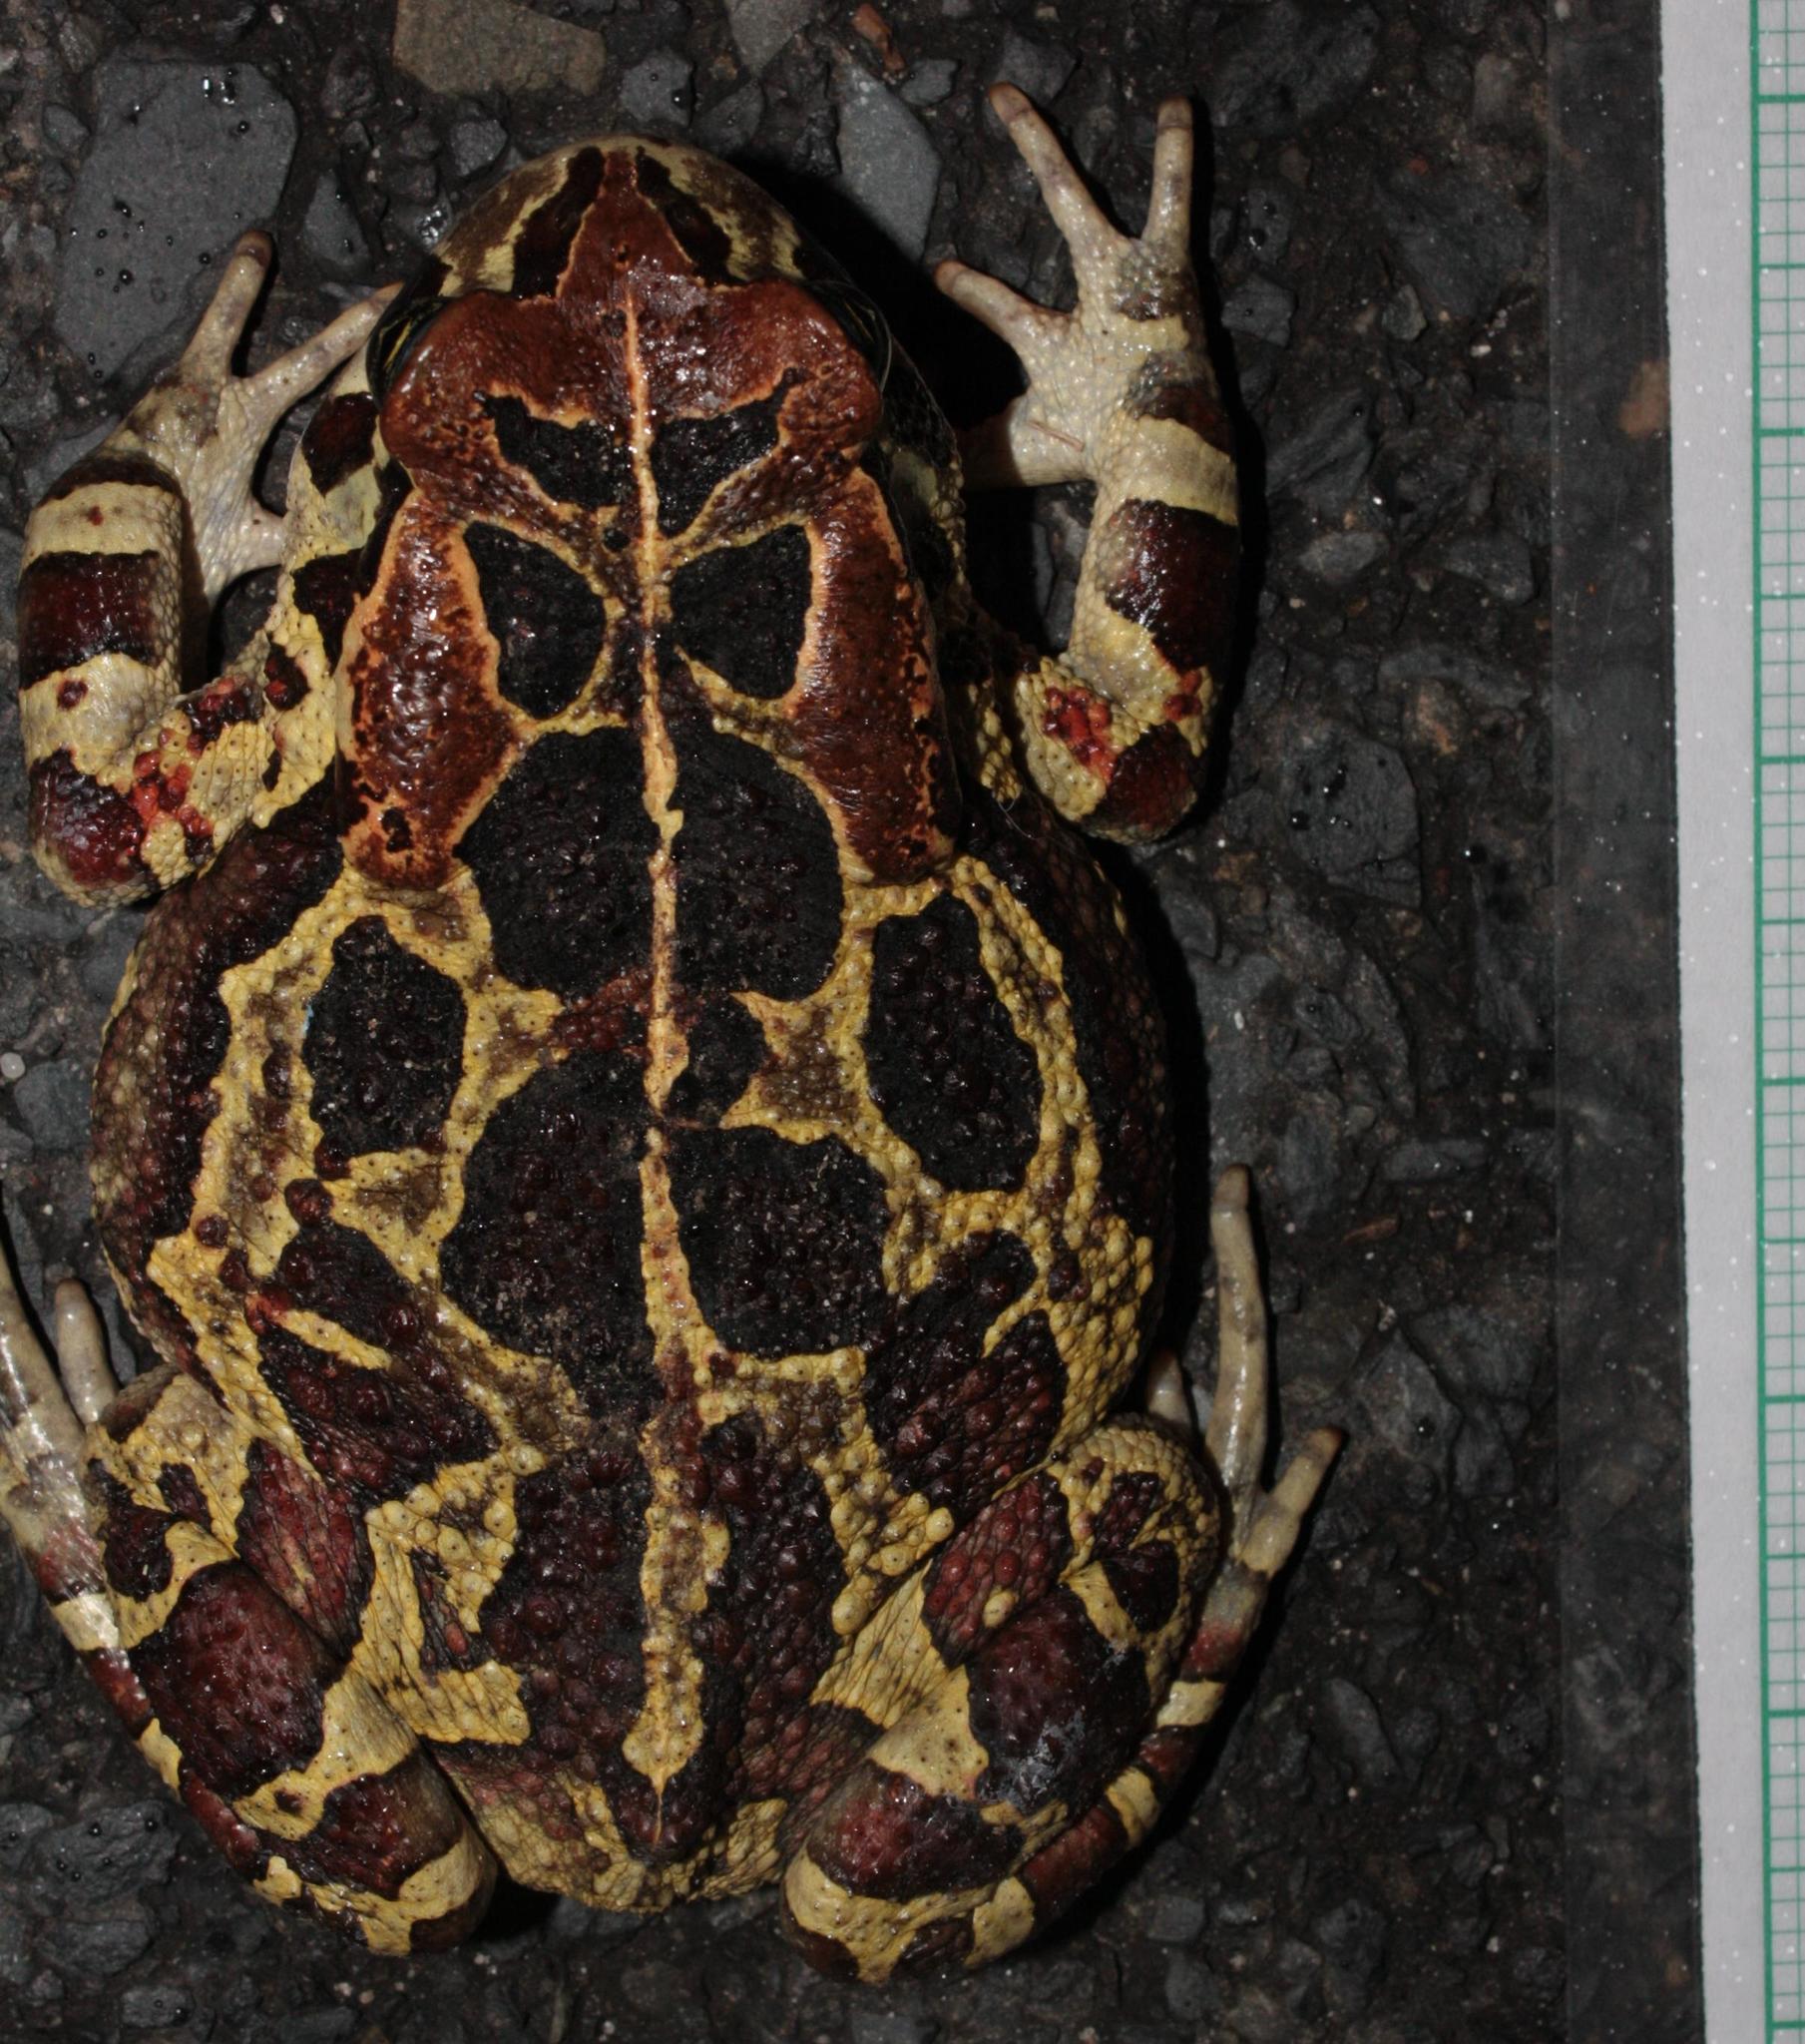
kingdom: Animalia
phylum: Chordata
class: Amphibia
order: Anura
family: Bufonidae
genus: Sclerophrys
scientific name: Sclerophrys pantherina
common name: Panther toad
